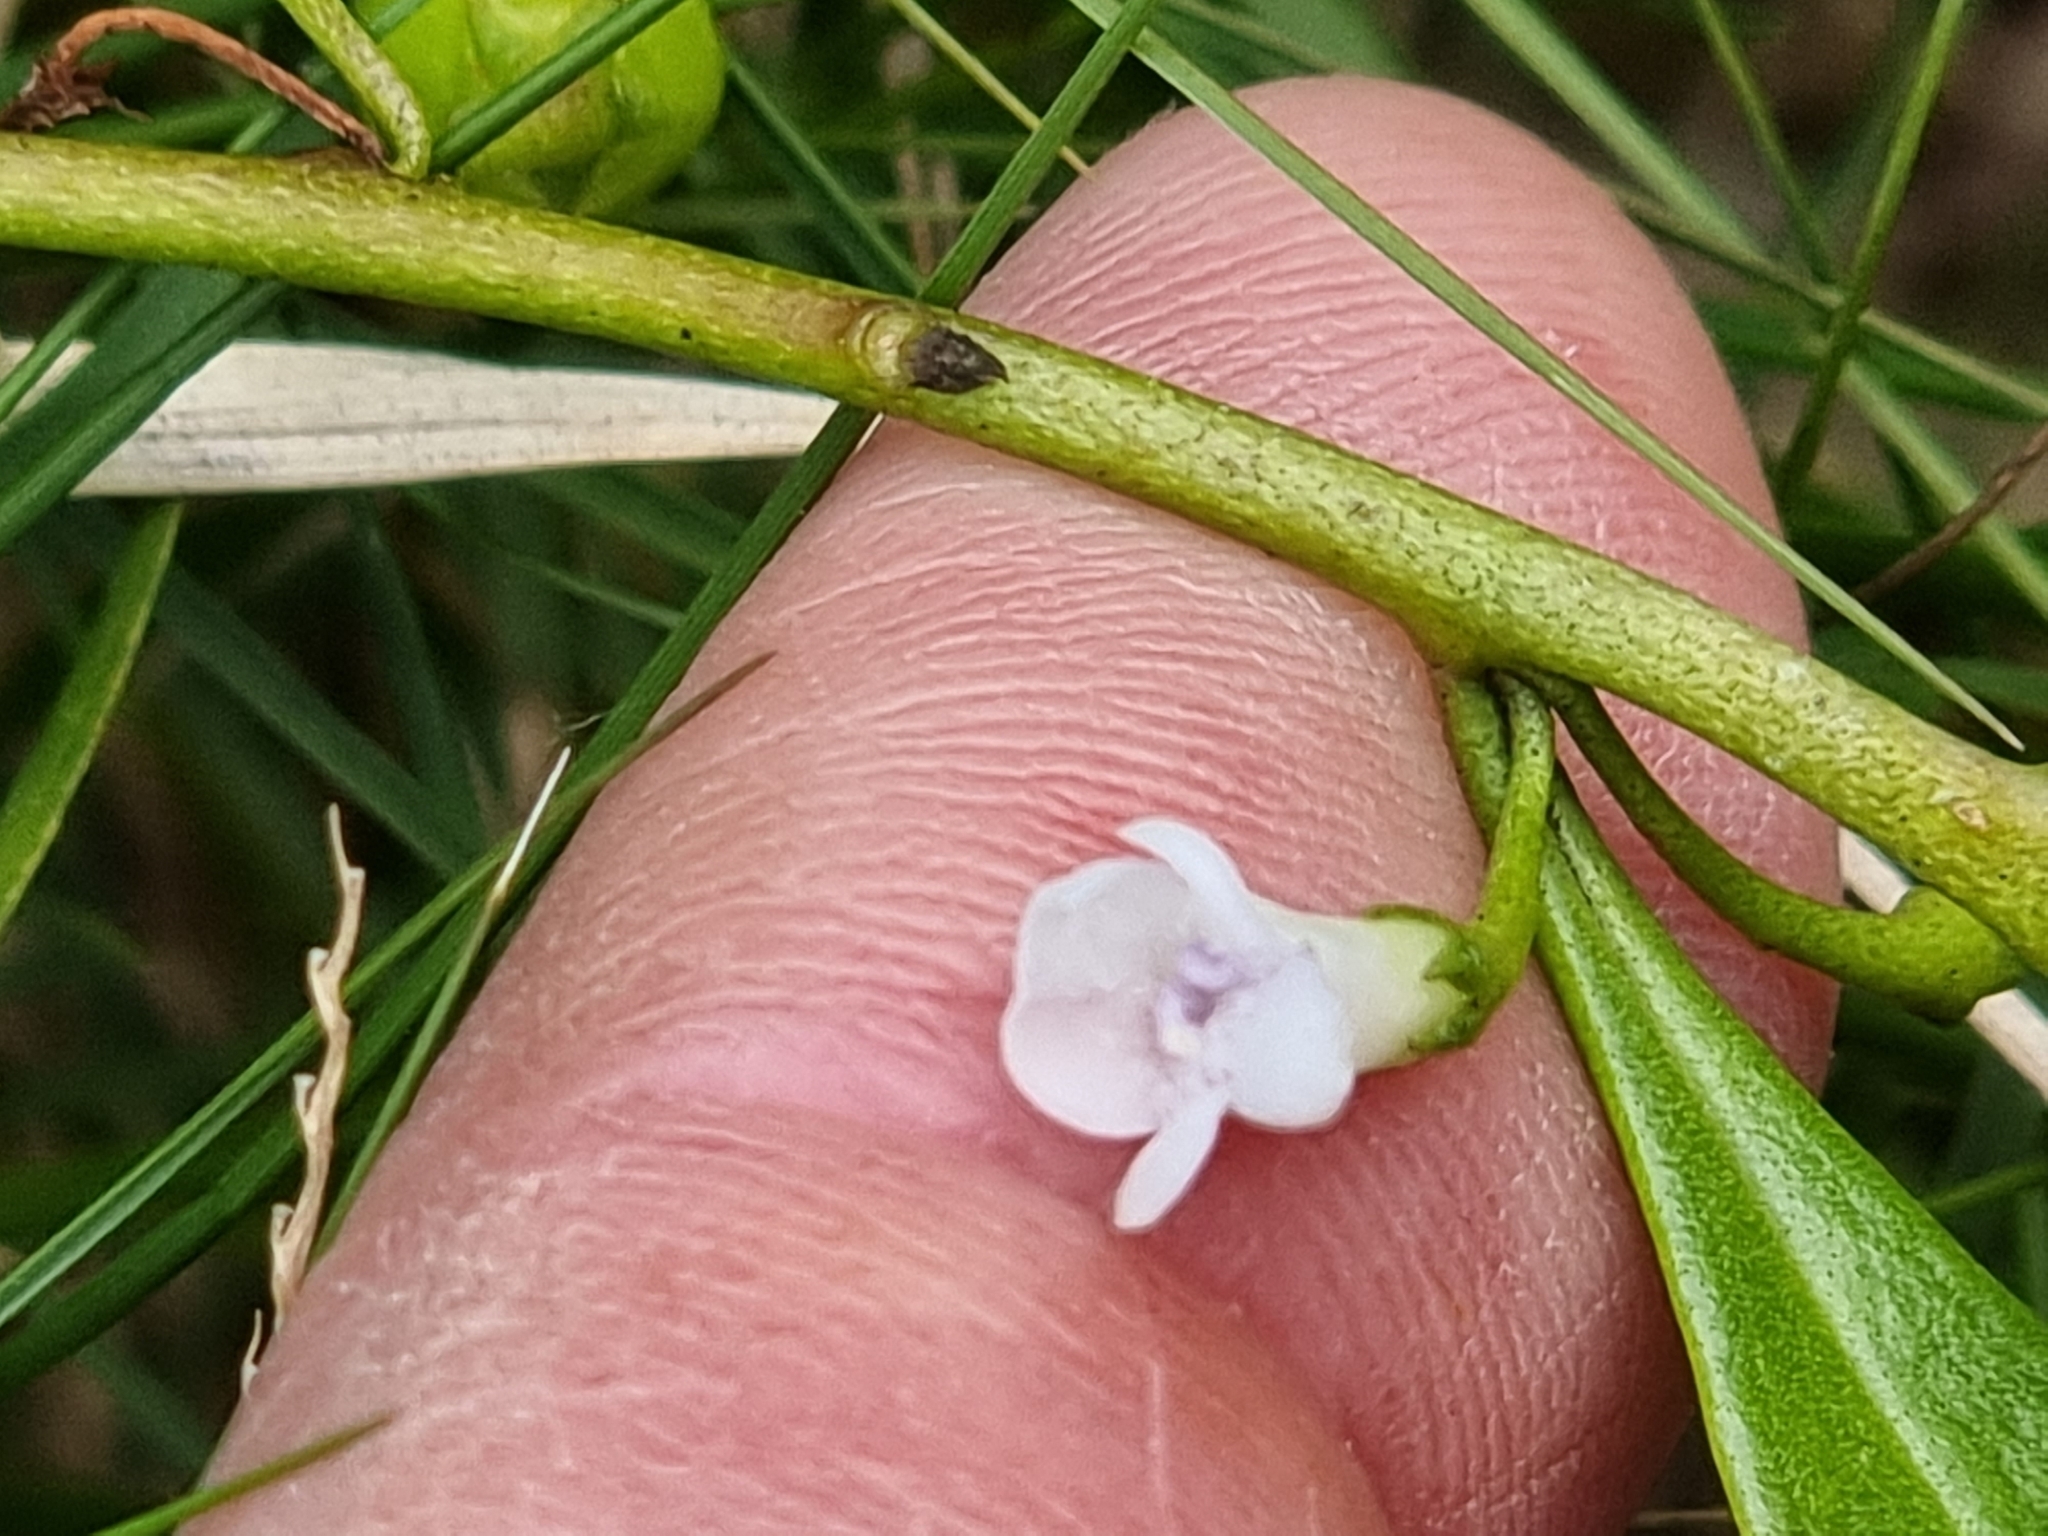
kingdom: Plantae
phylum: Tracheophyta
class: Magnoliopsida
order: Lamiales
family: Scrophulariaceae
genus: Myoporum
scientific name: Myoporum acuminatum
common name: Pointed boobialla
